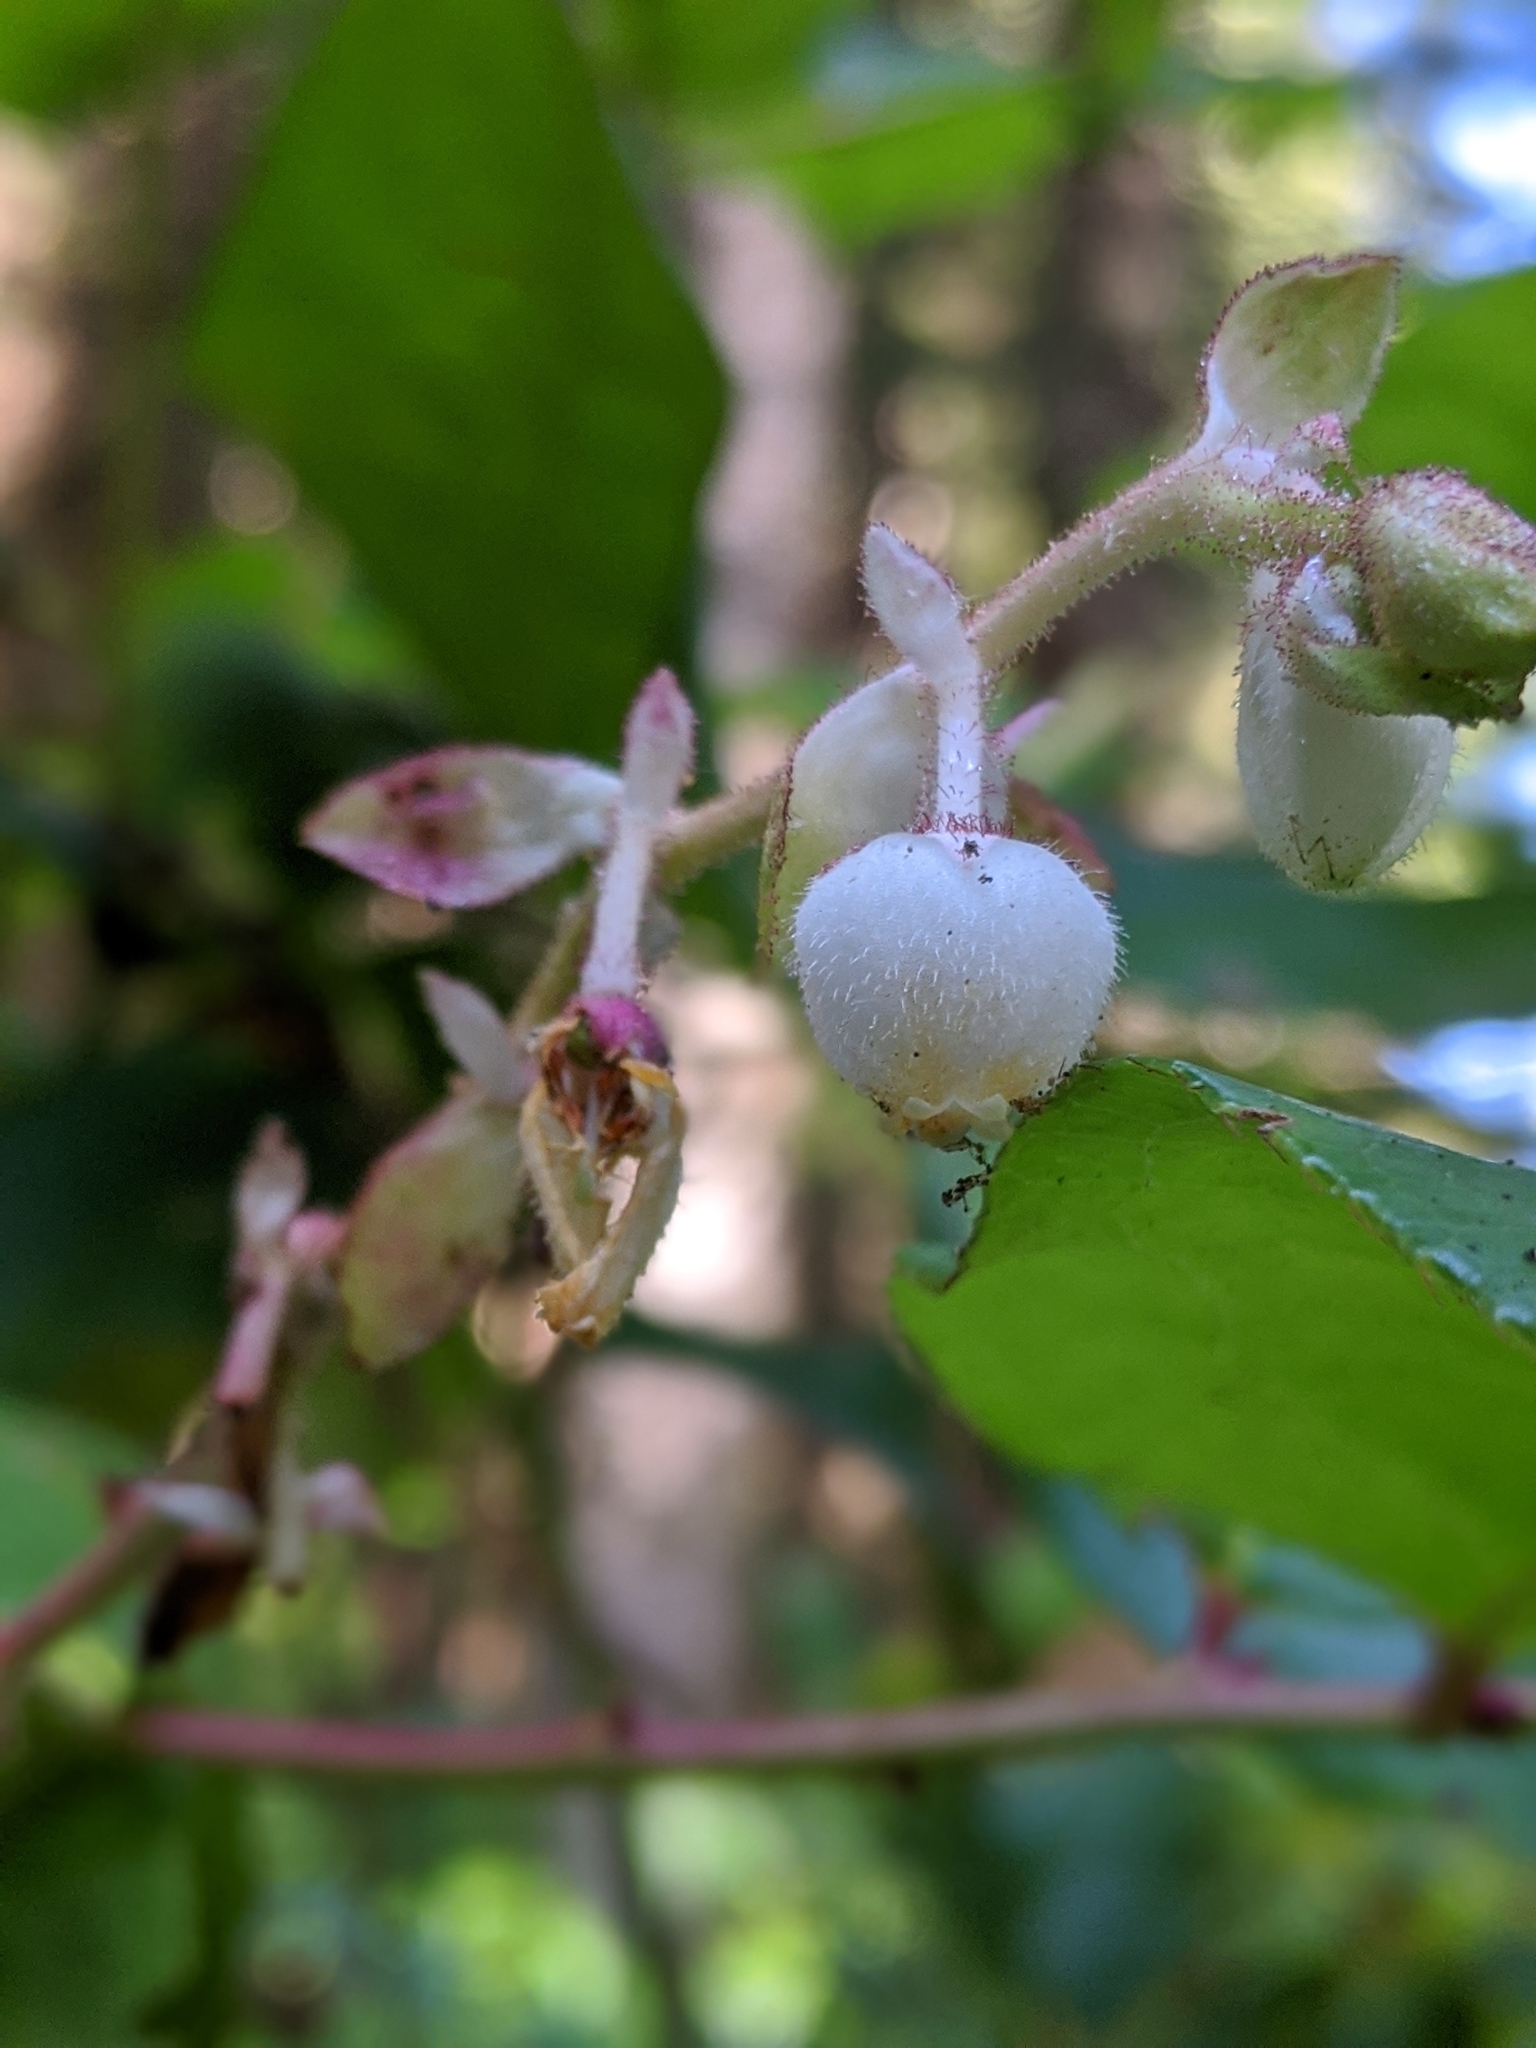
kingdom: Plantae
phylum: Tracheophyta
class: Magnoliopsida
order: Ericales
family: Ericaceae
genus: Gaultheria
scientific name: Gaultheria shallon
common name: Shallon
